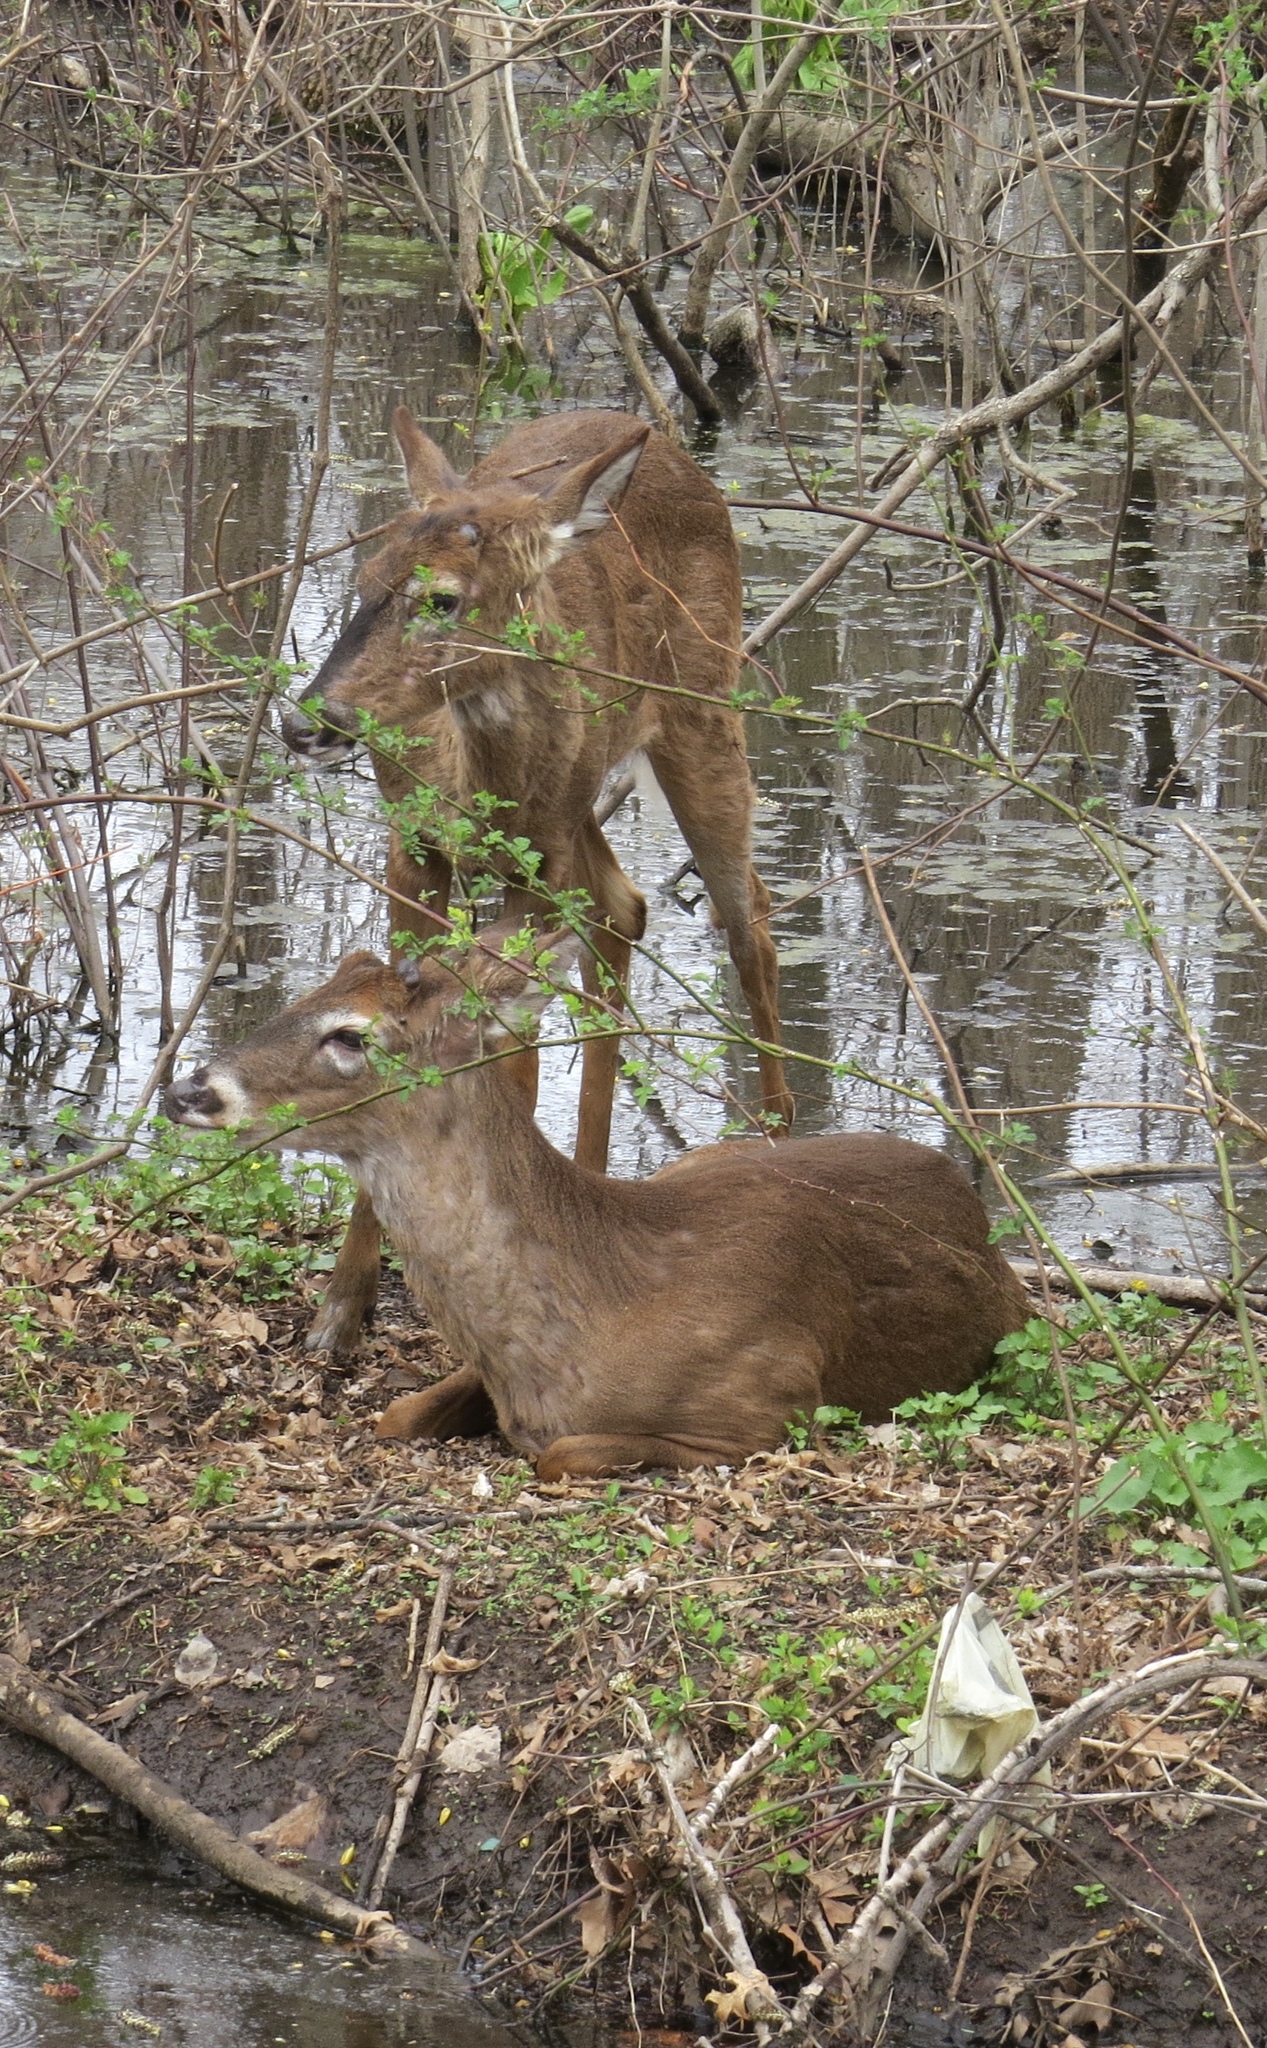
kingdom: Animalia
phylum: Chordata
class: Mammalia
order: Artiodactyla
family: Cervidae
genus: Odocoileus
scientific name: Odocoileus virginianus
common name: White-tailed deer
